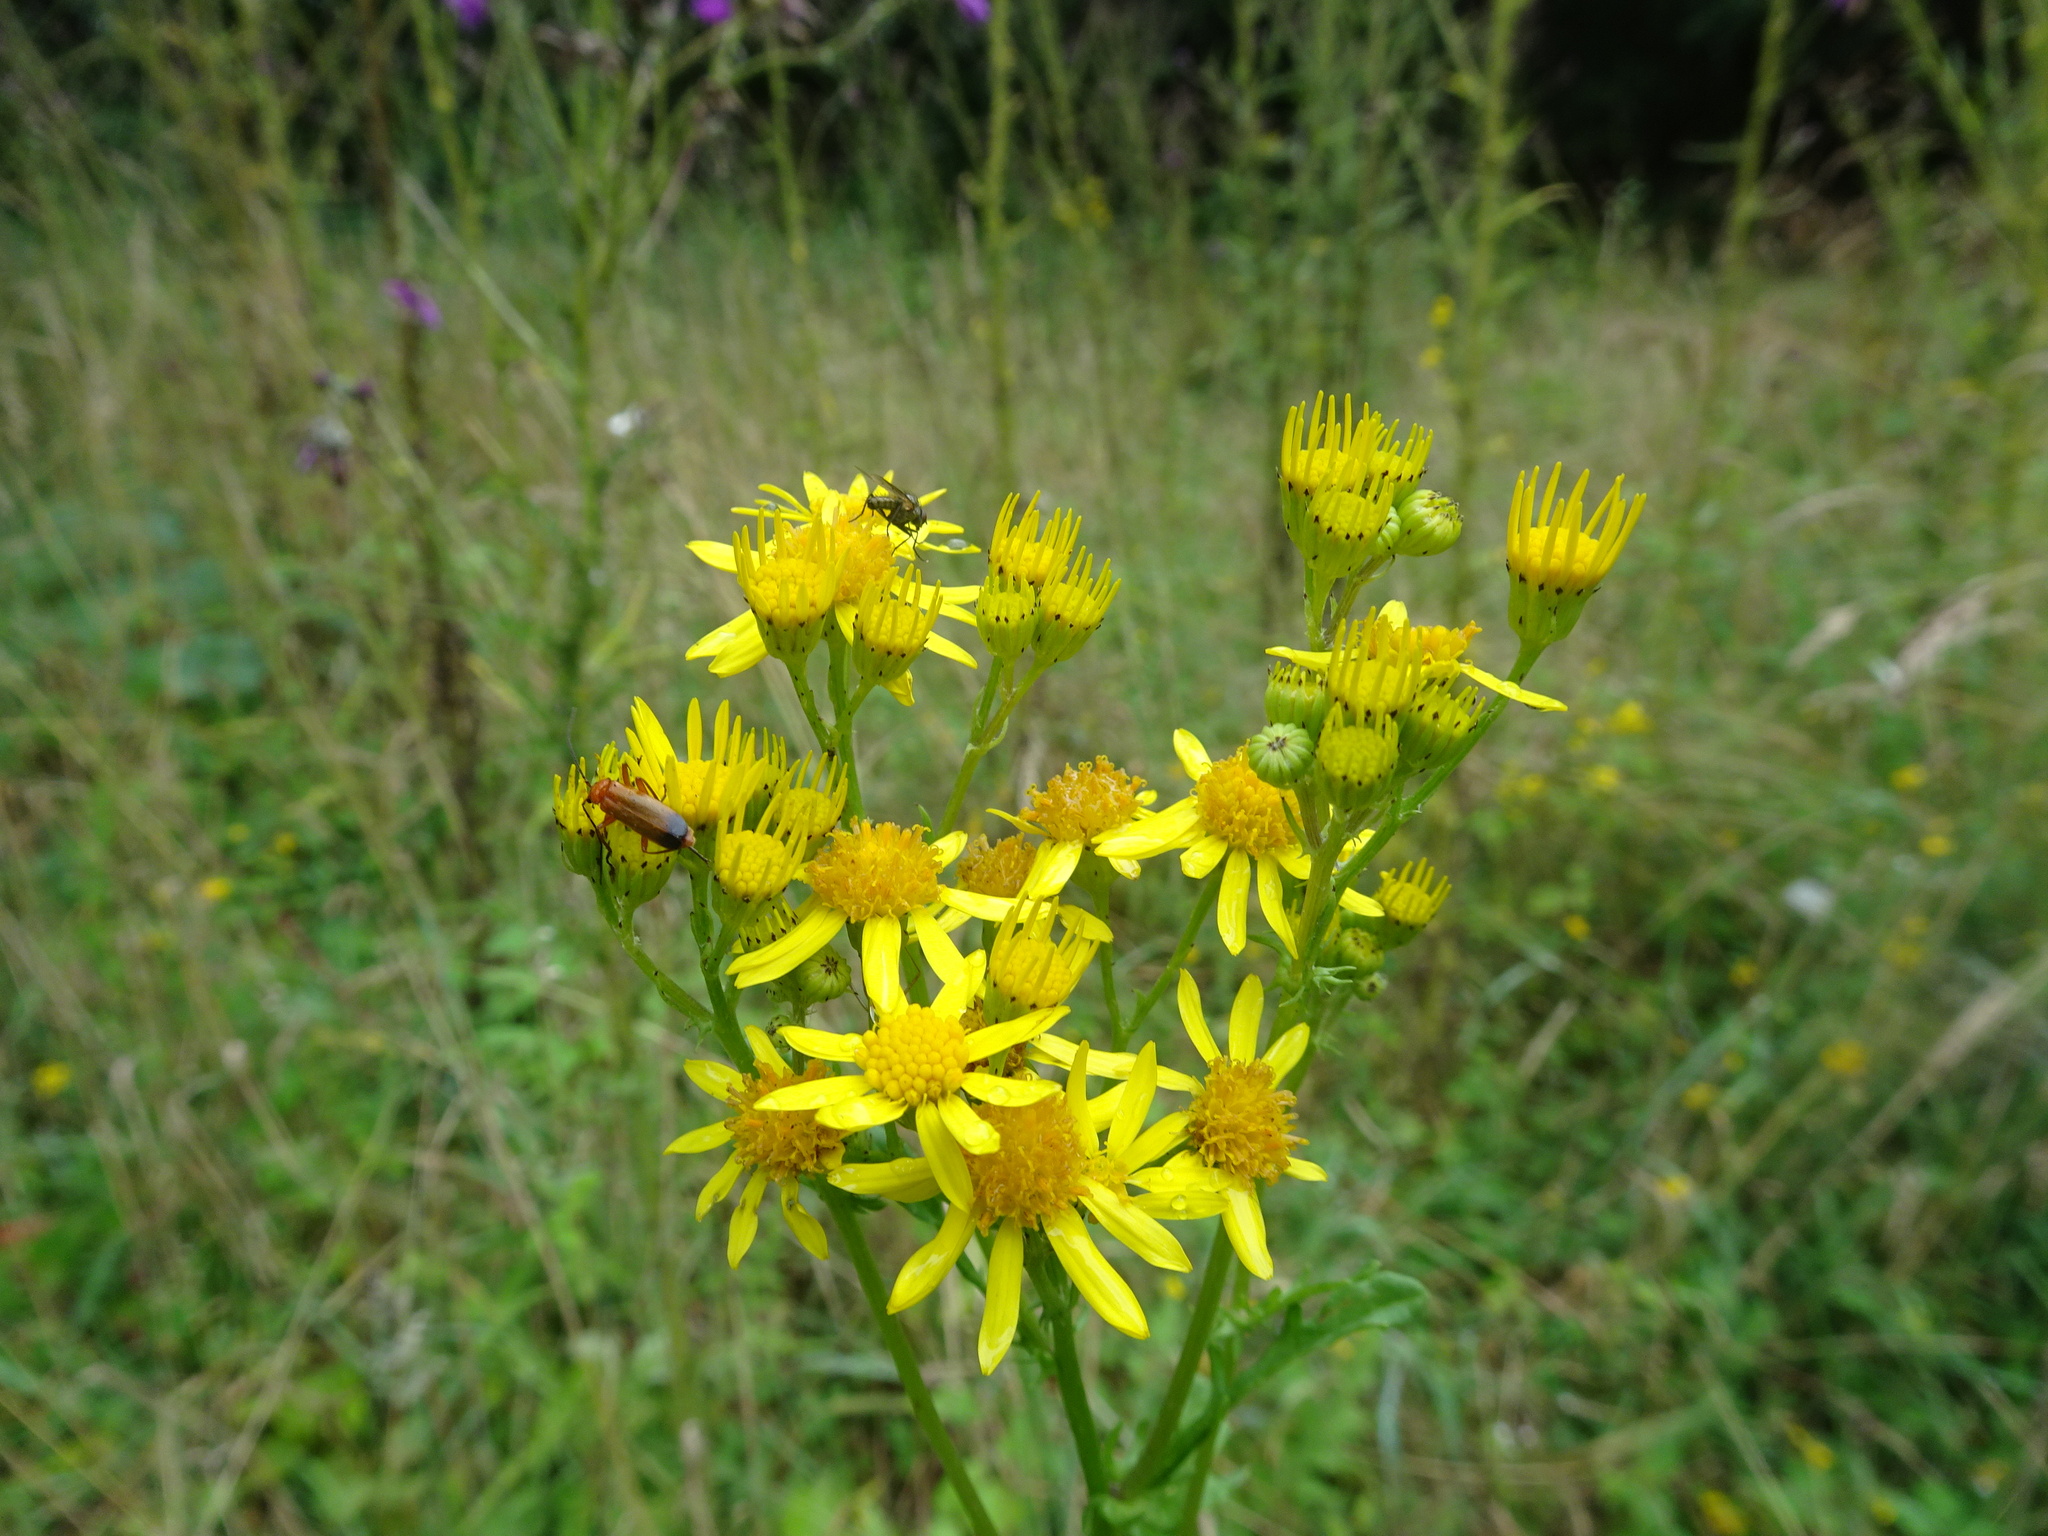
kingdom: Plantae
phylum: Tracheophyta
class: Magnoliopsida
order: Asterales
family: Asteraceae
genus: Jacobaea
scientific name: Jacobaea vulgaris
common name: Stinking willie
